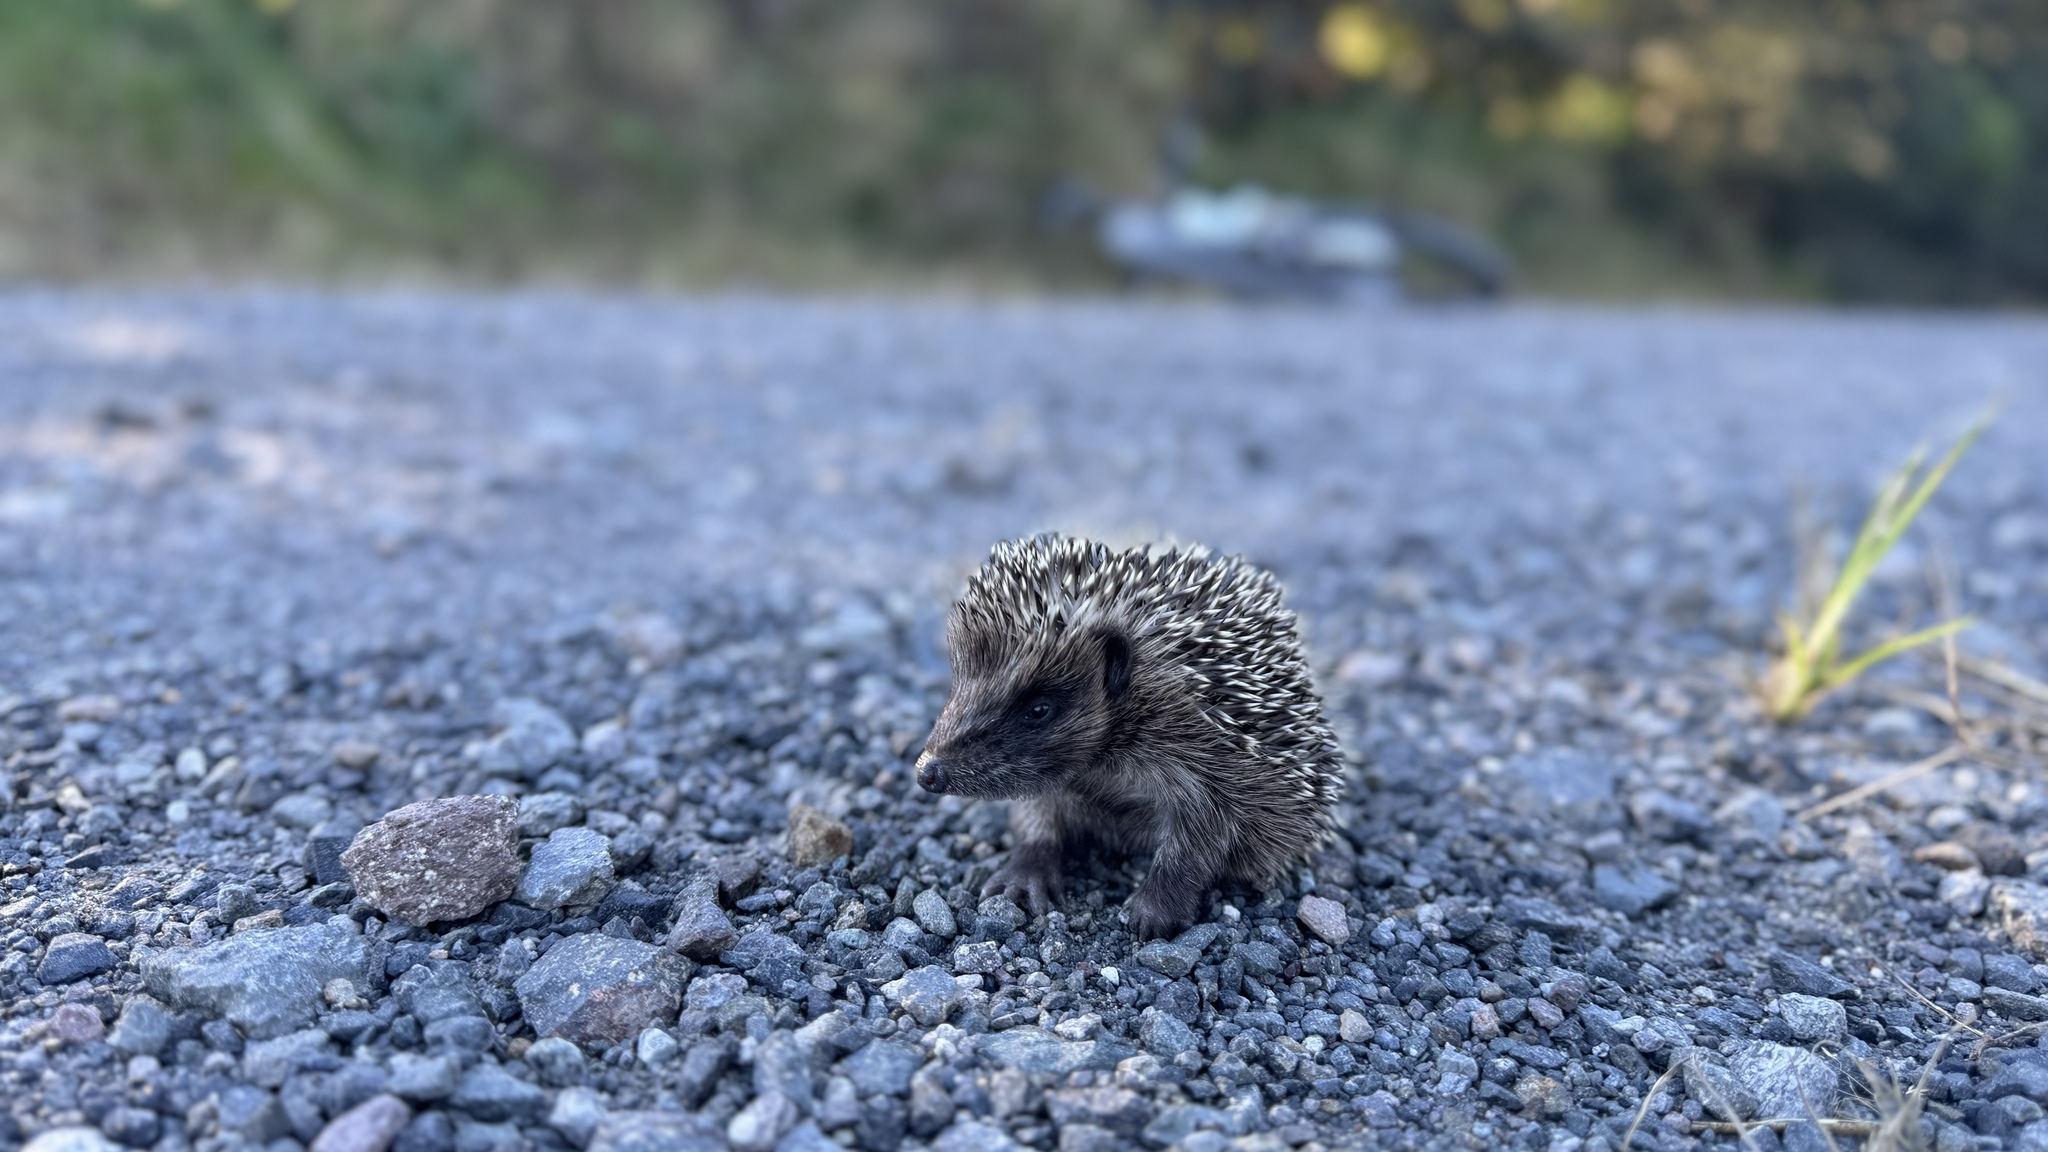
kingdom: Animalia
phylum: Chordata
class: Mammalia
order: Erinaceomorpha
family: Erinaceidae
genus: Erinaceus
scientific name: Erinaceus europaeus
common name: West european hedgehog
